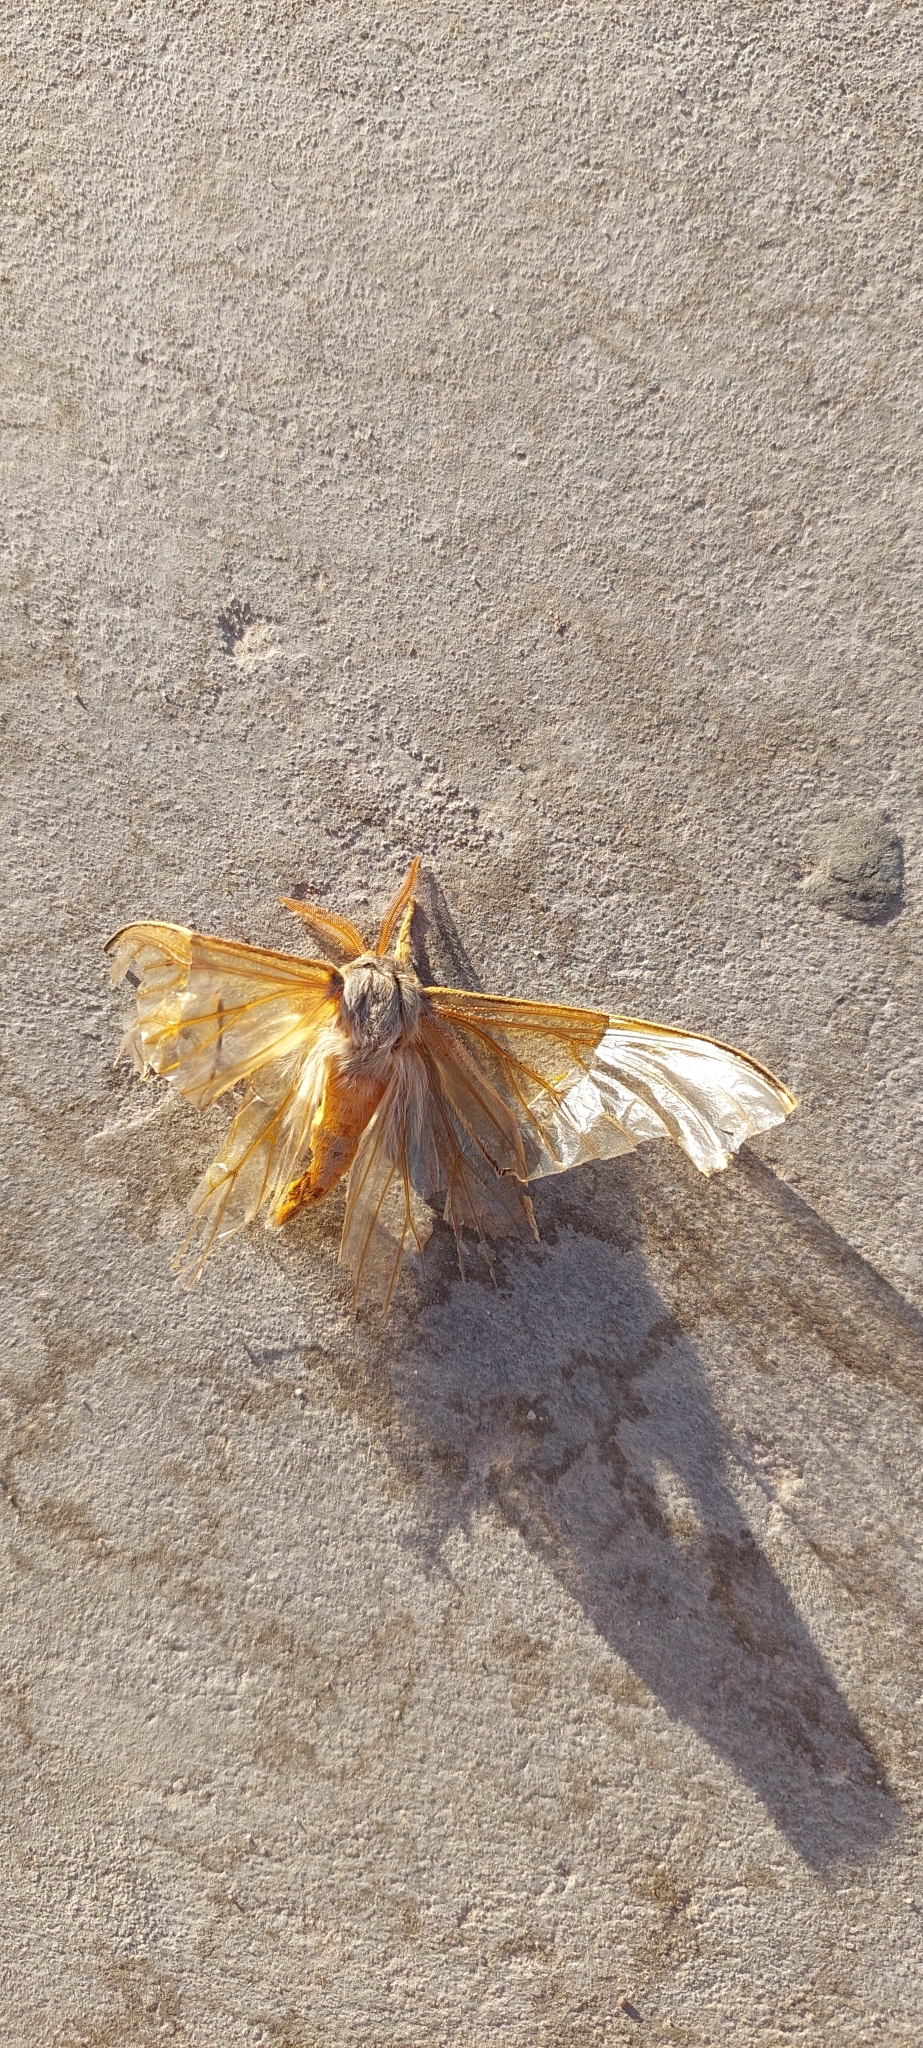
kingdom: Animalia
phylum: Arthropoda
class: Insecta
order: Lepidoptera
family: Saturniidae
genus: Heliconisa
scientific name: Heliconisa pagenstecheri
